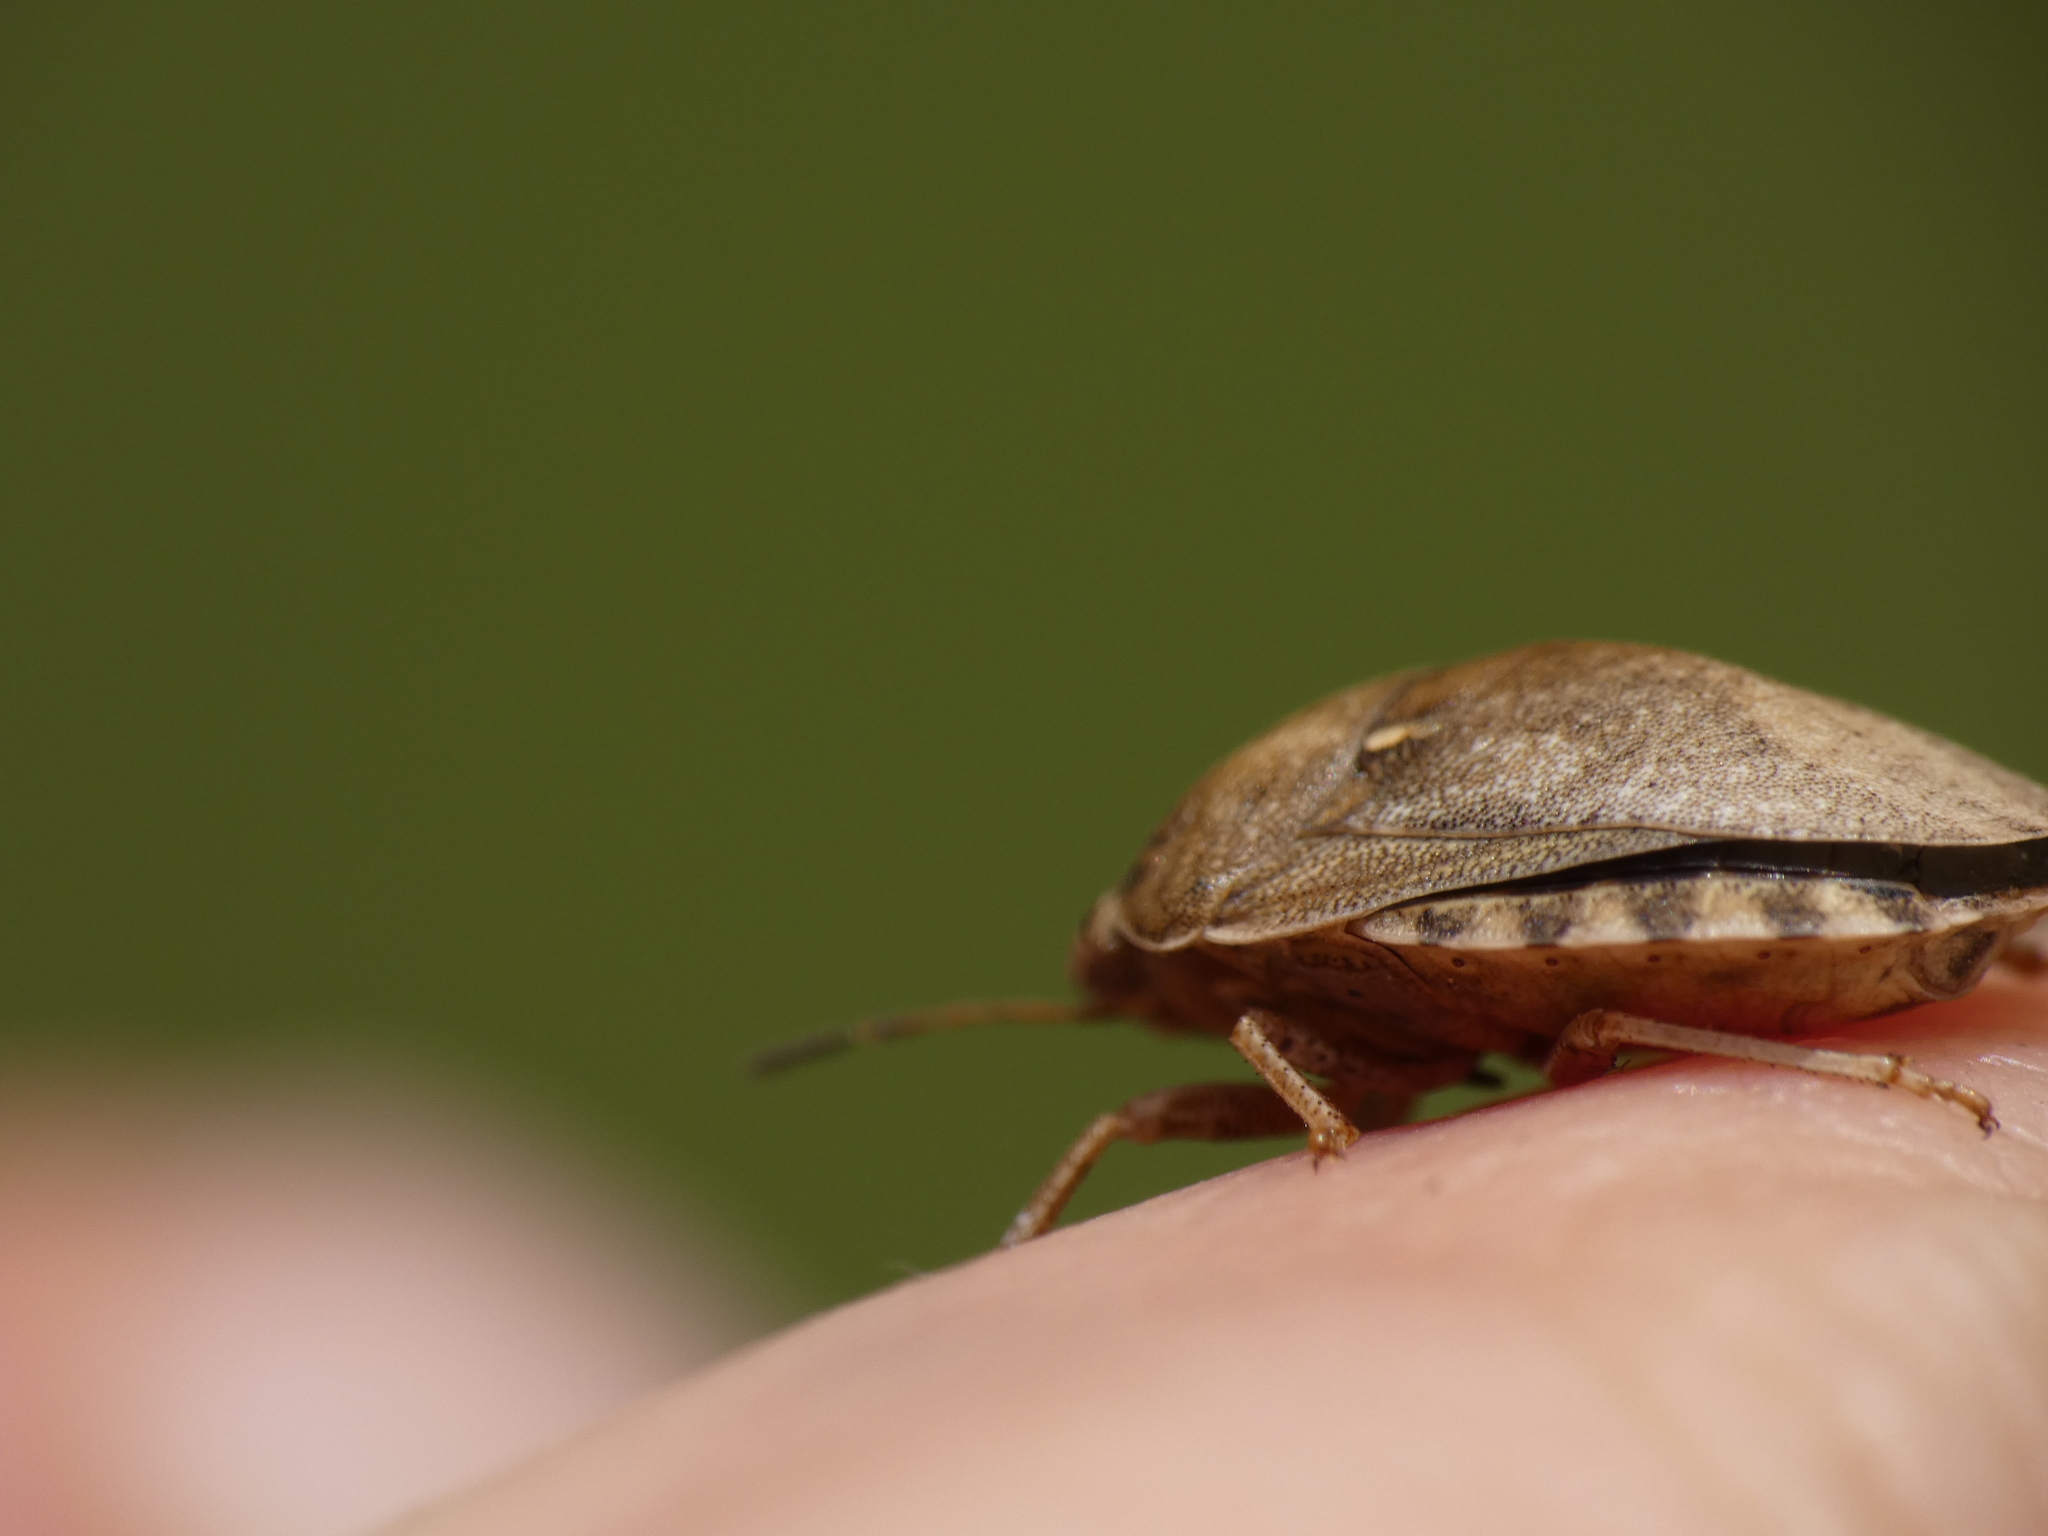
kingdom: Animalia
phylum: Arthropoda
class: Insecta
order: Hemiptera
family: Scutelleridae
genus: Eurygaster
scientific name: Eurygaster maura
